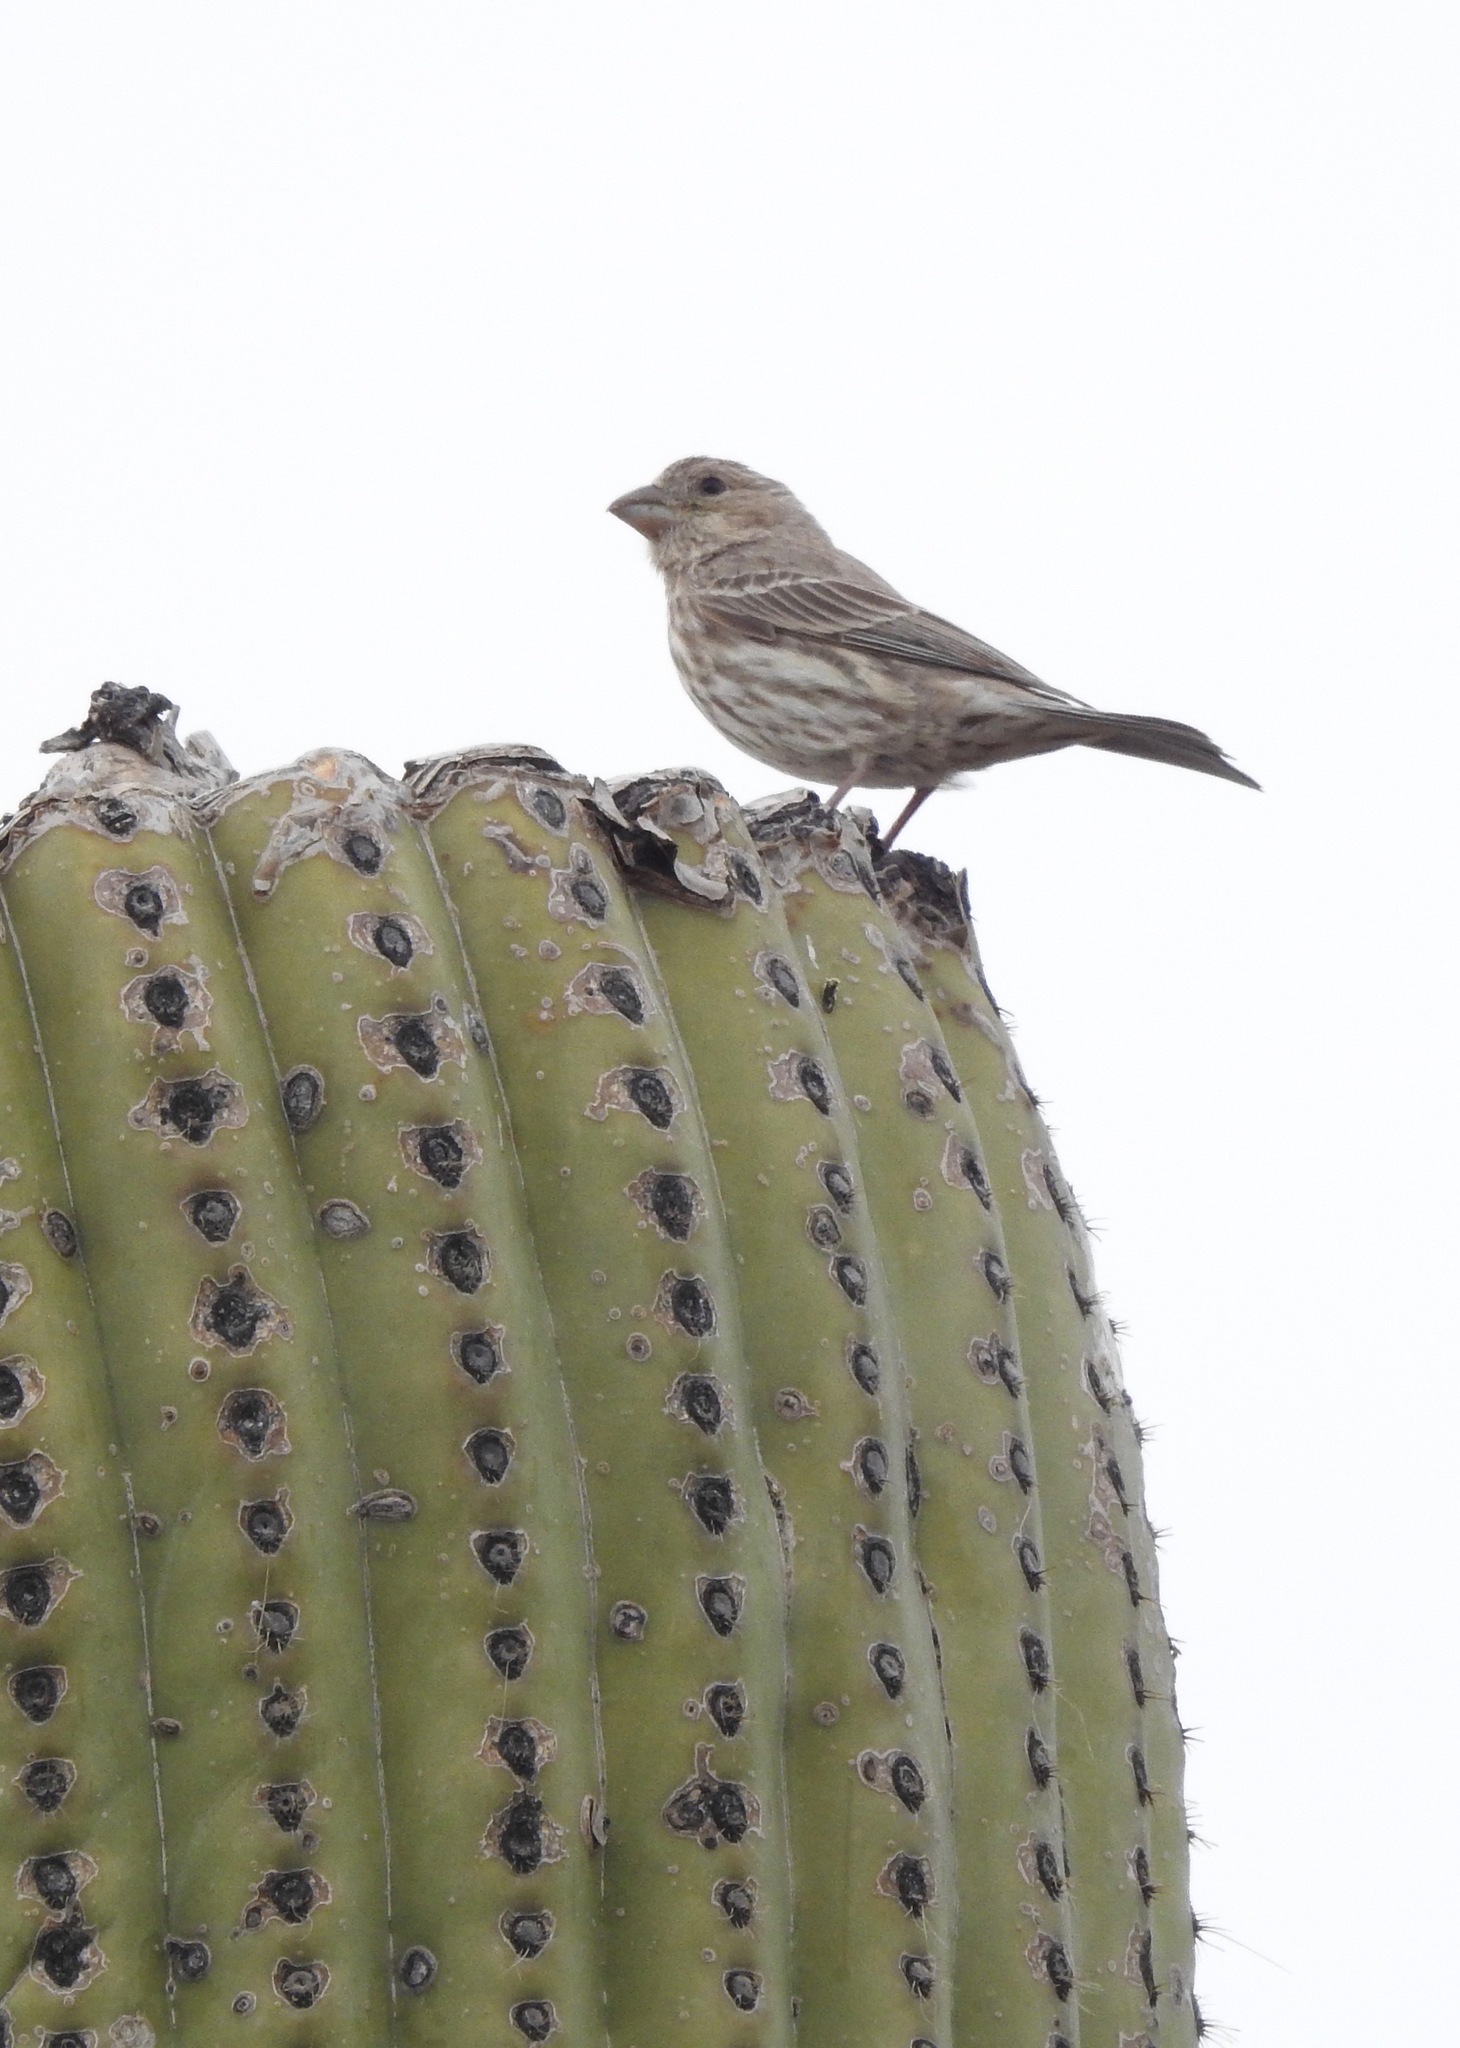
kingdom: Animalia
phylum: Chordata
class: Aves
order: Passeriformes
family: Fringillidae
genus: Haemorhous
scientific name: Haemorhous mexicanus
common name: House finch
